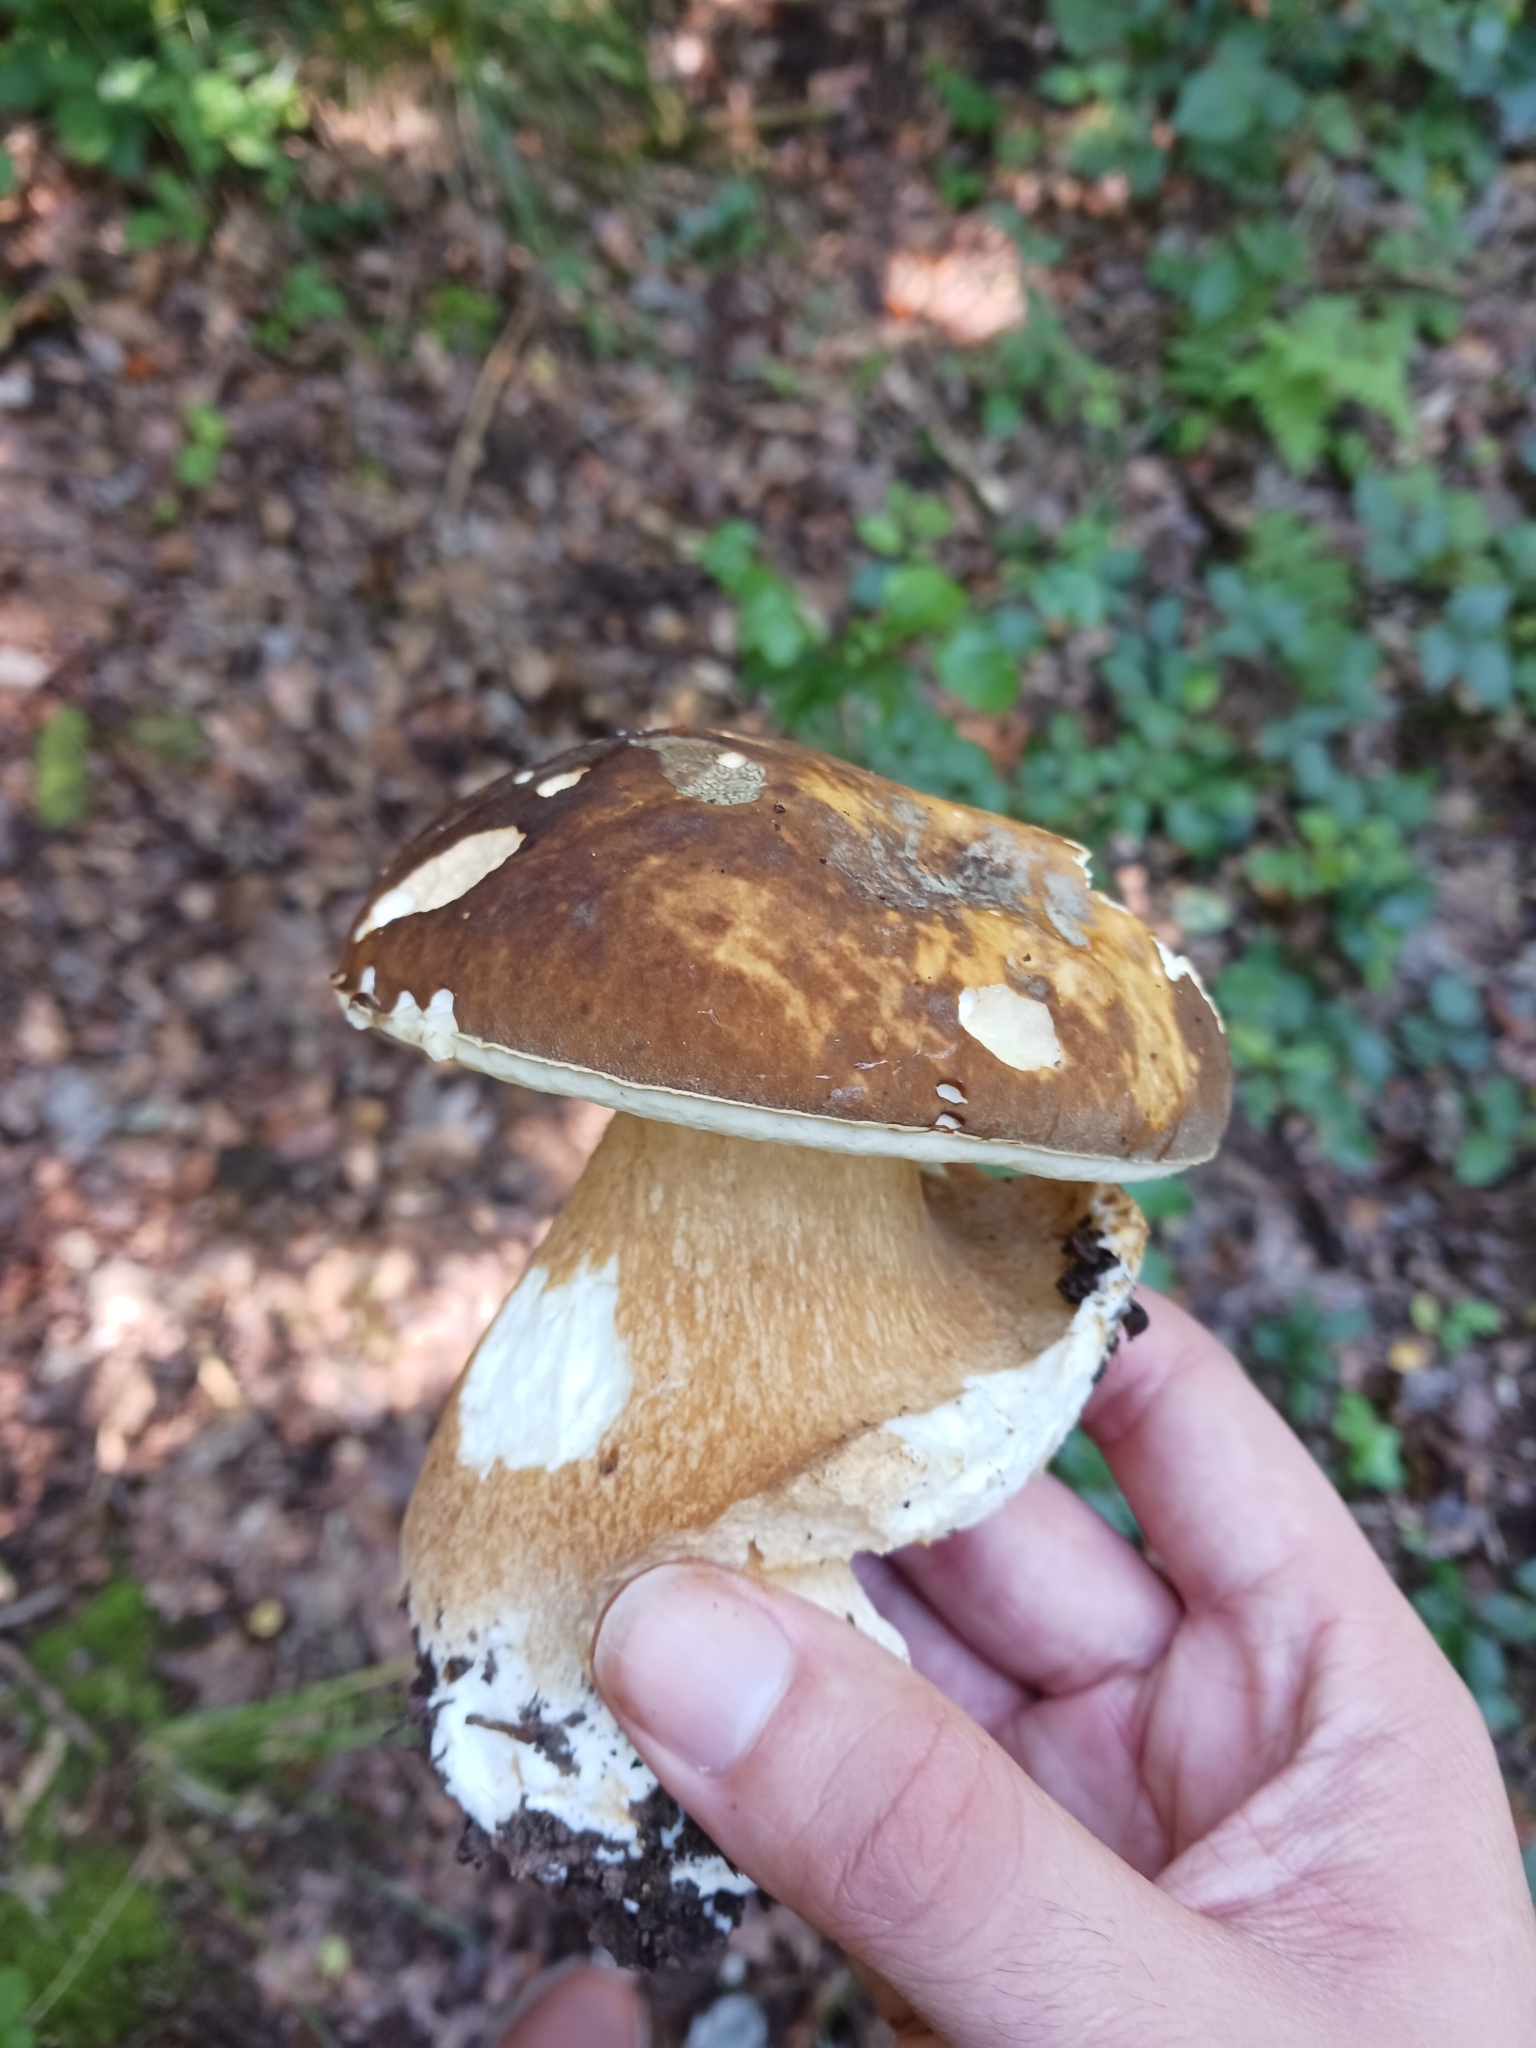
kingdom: Fungi
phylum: Basidiomycota
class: Agaricomycetes
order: Boletales
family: Boletaceae
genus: Boletus
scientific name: Boletus aereus
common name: Bronze bolete
